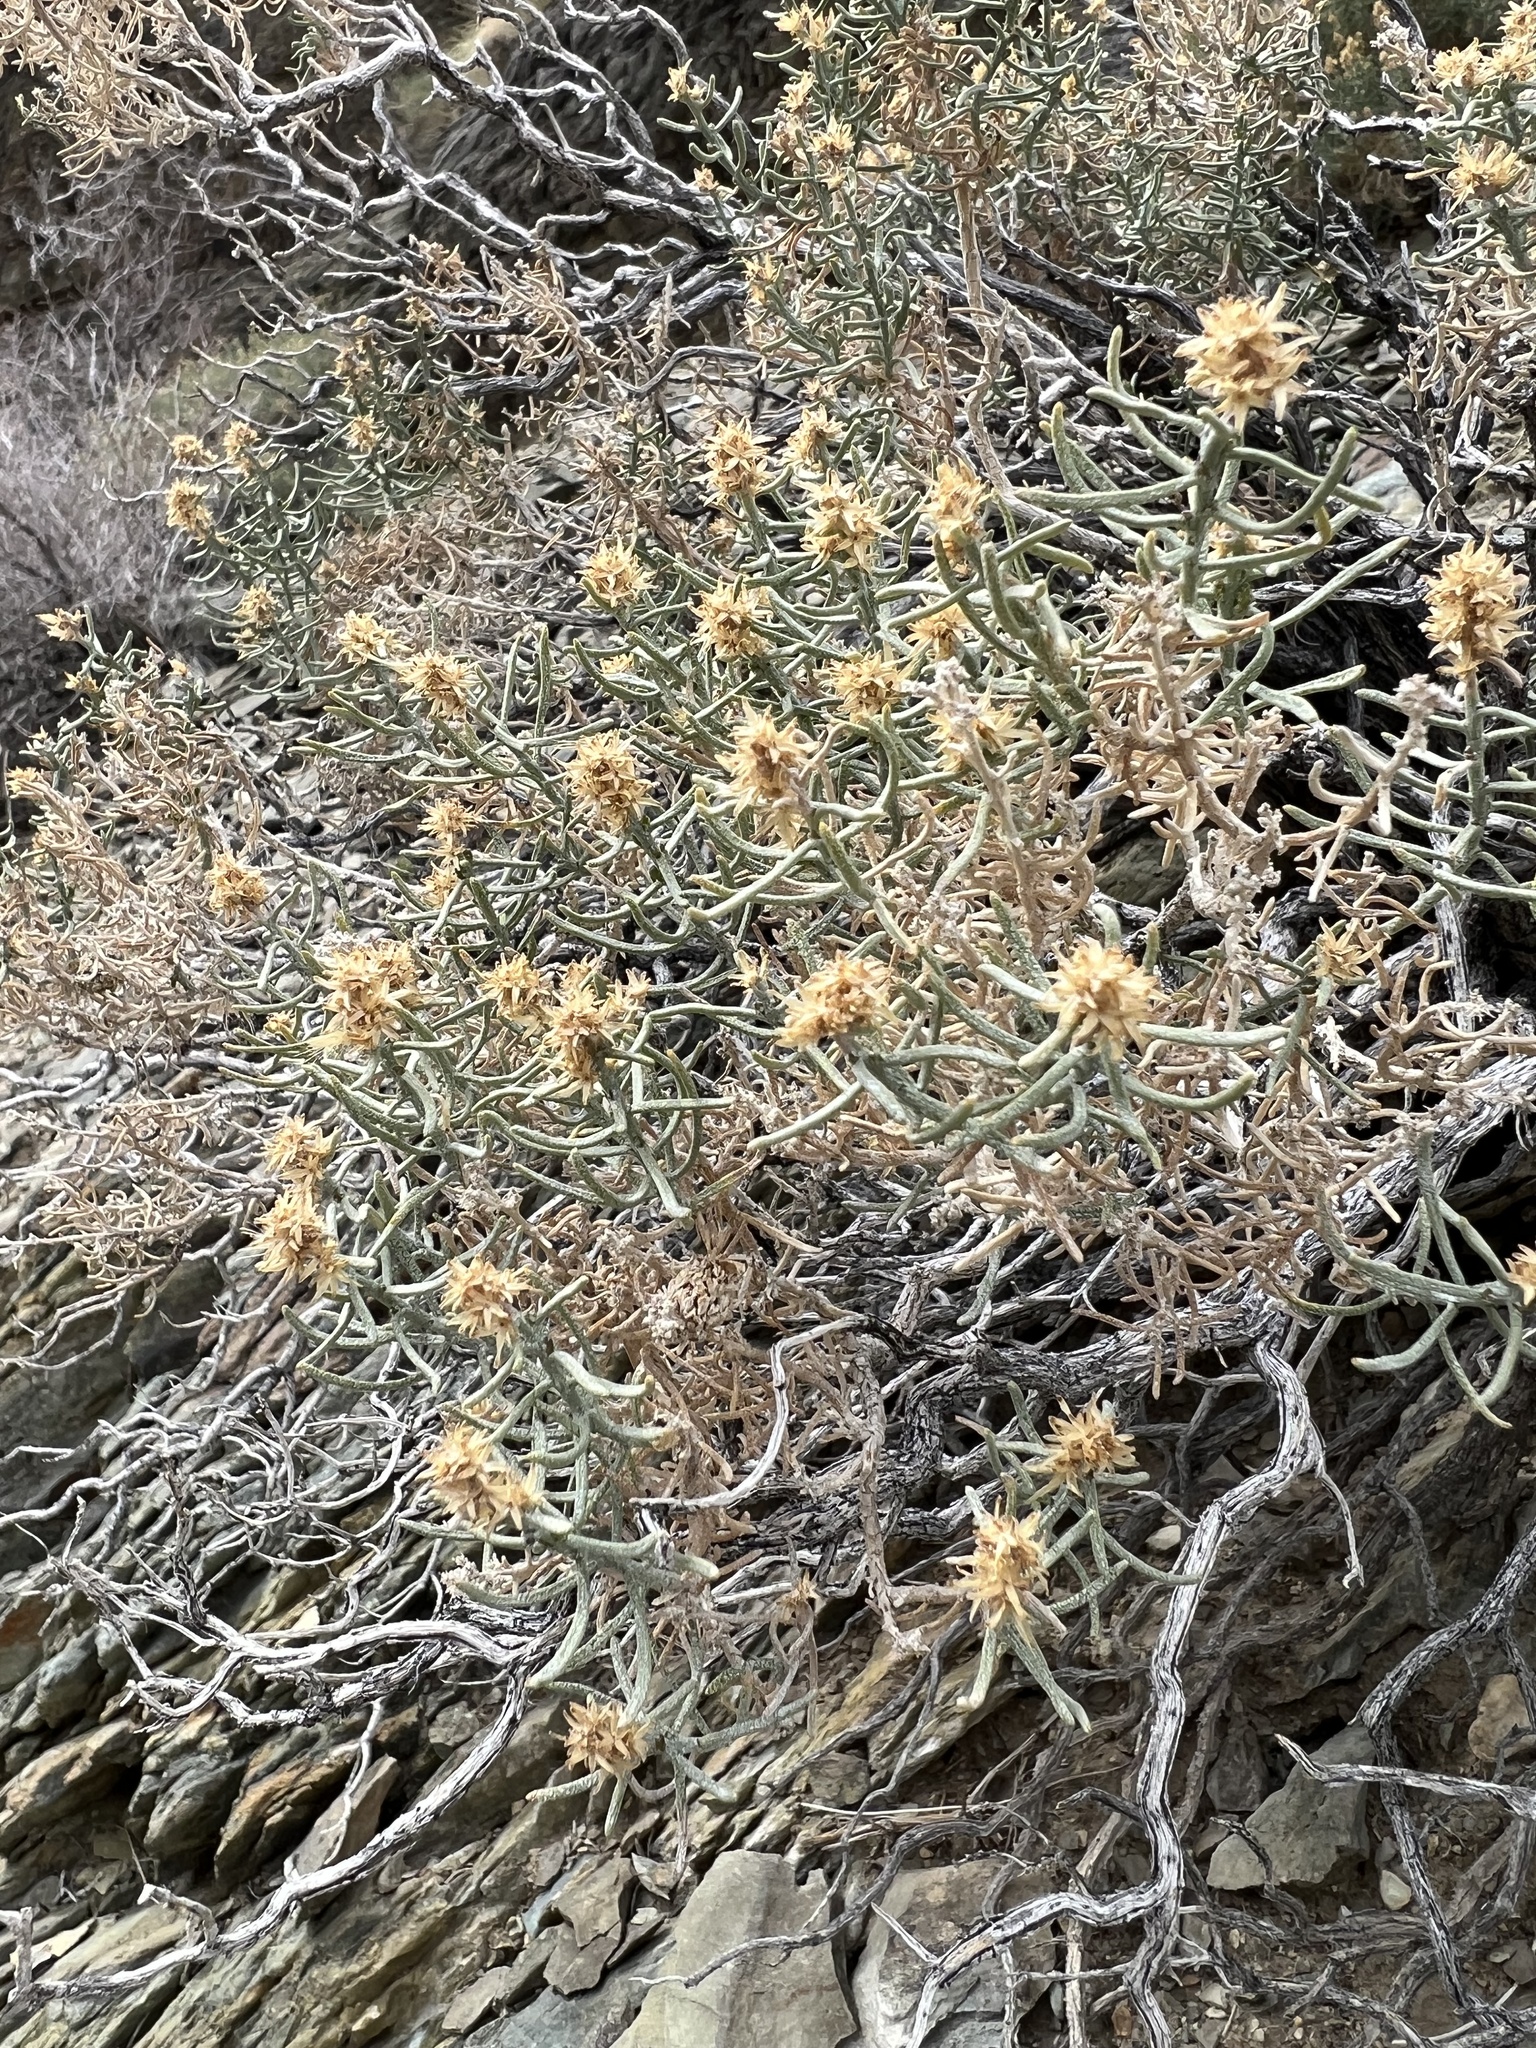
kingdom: Plantae
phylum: Tracheophyta
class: Magnoliopsida
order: Asterales
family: Asteraceae
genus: Ericameria
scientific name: Ericameria teretifolia
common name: Round-leaf rabbitbrush
